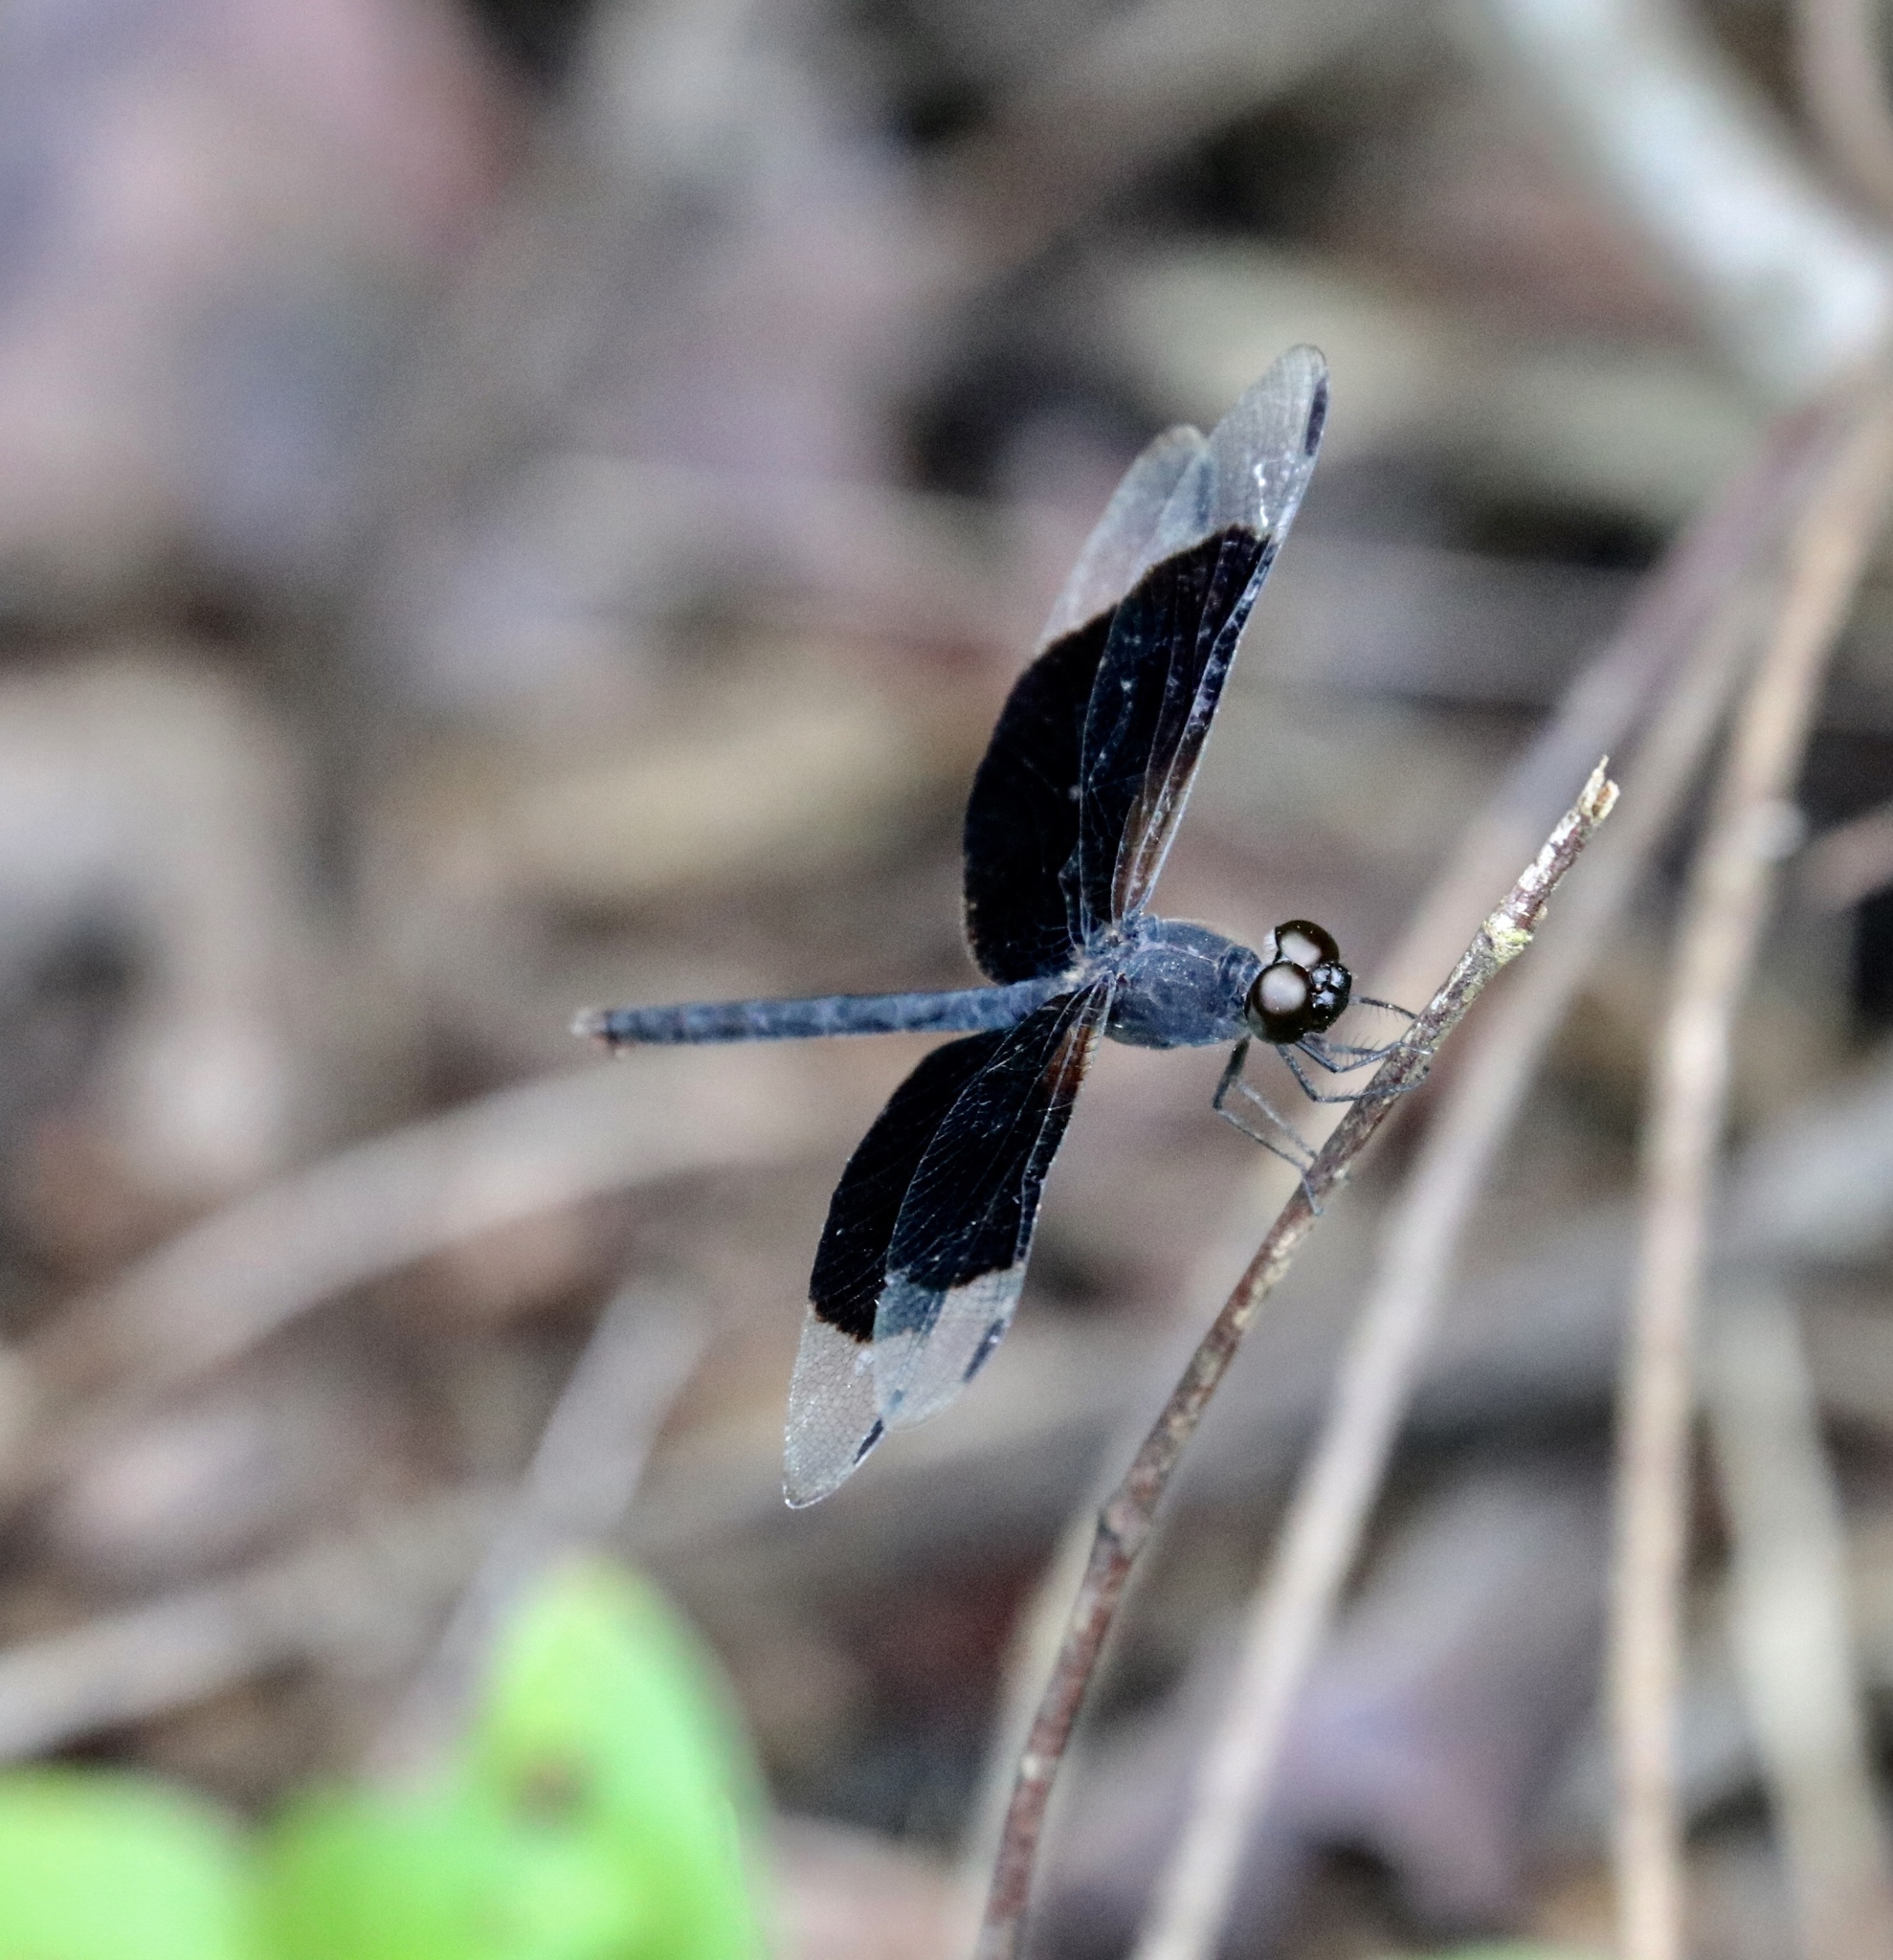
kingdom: Animalia
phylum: Arthropoda
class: Insecta
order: Odonata
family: Libellulidae
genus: Erythrodiplax
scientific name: Erythrodiplax funerea
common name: Black-winged dragonlet
